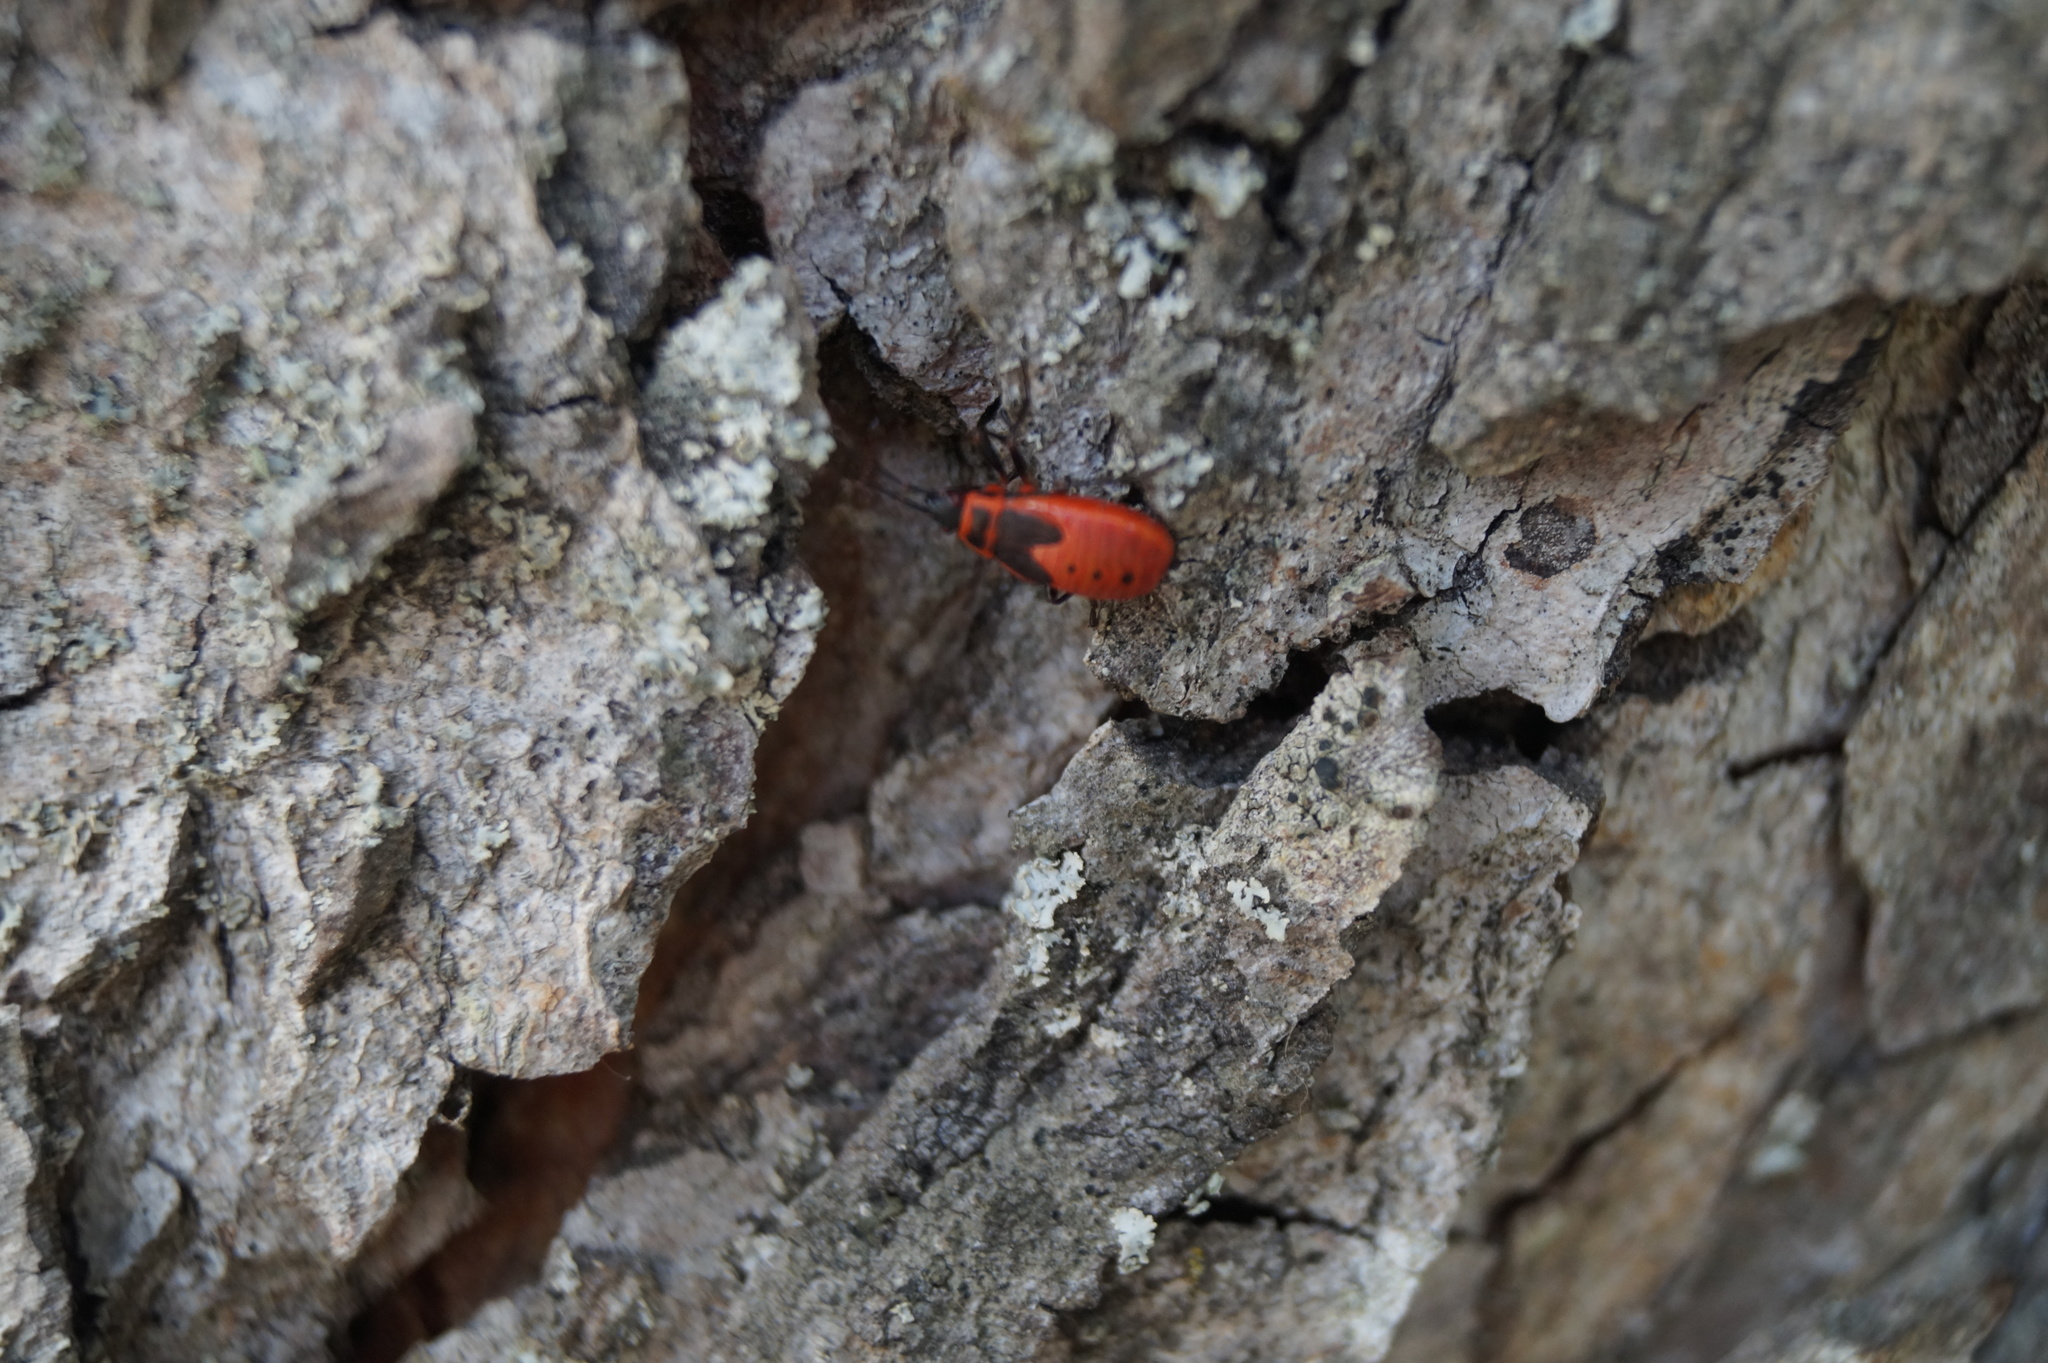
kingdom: Animalia
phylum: Arthropoda
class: Insecta
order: Hemiptera
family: Pyrrhocoridae
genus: Pyrrhocoris
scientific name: Pyrrhocoris apterus
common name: Firebug
